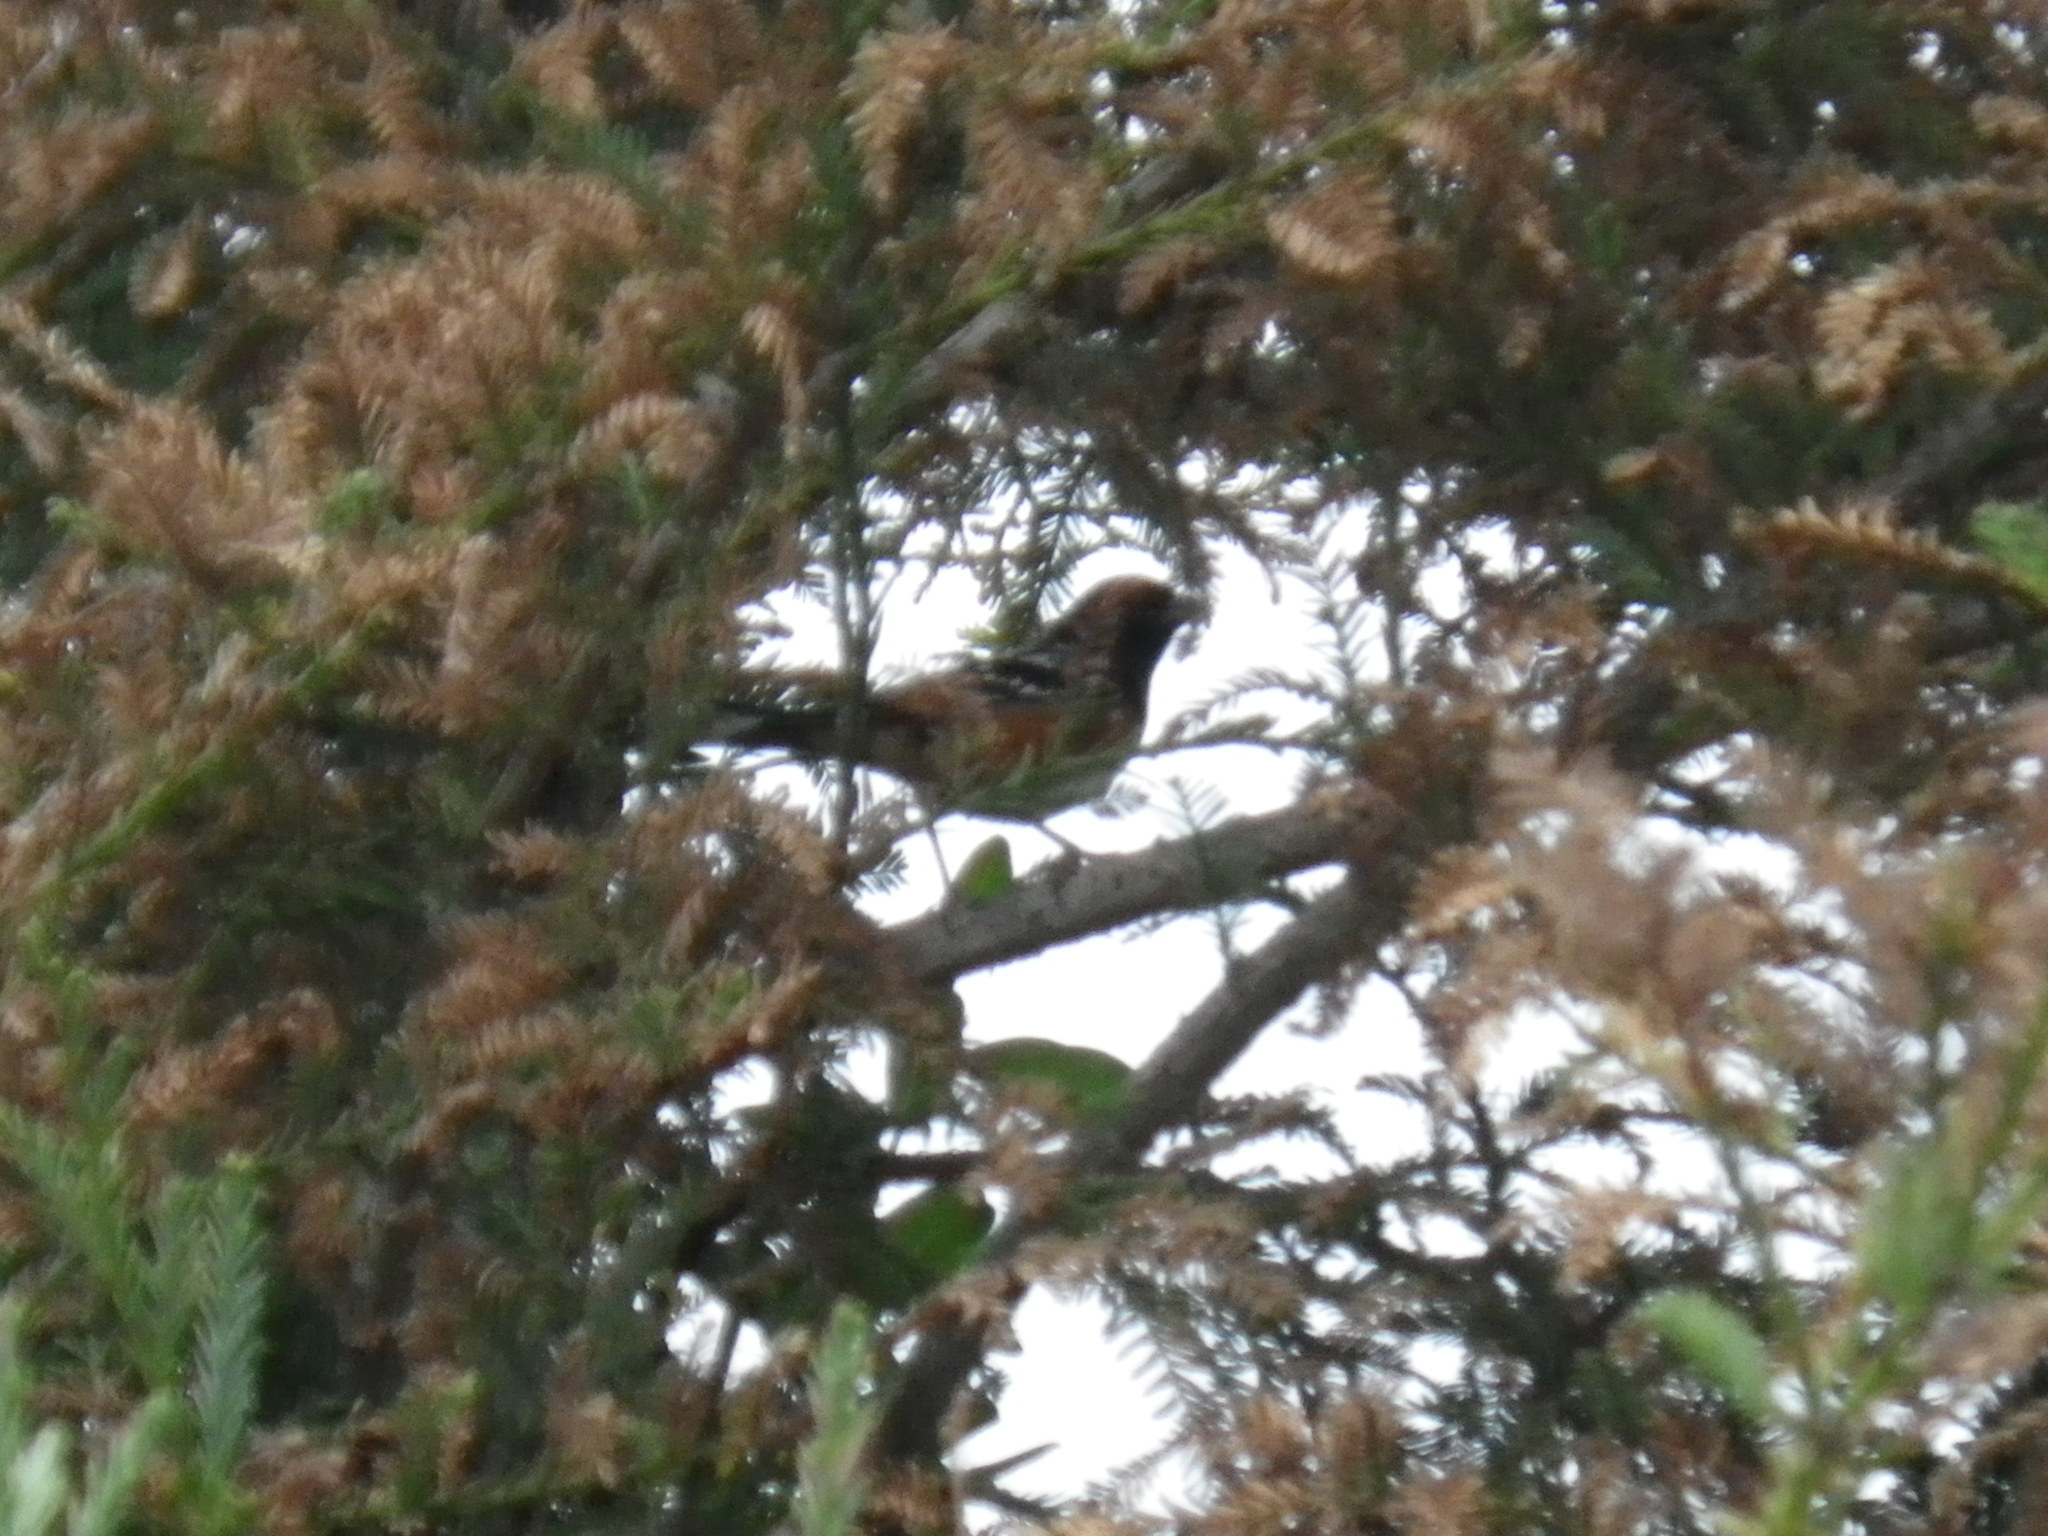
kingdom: Animalia
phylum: Chordata
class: Aves
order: Passeriformes
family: Passerellidae
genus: Pipilo
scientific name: Pipilo maculatus
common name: Spotted towhee
